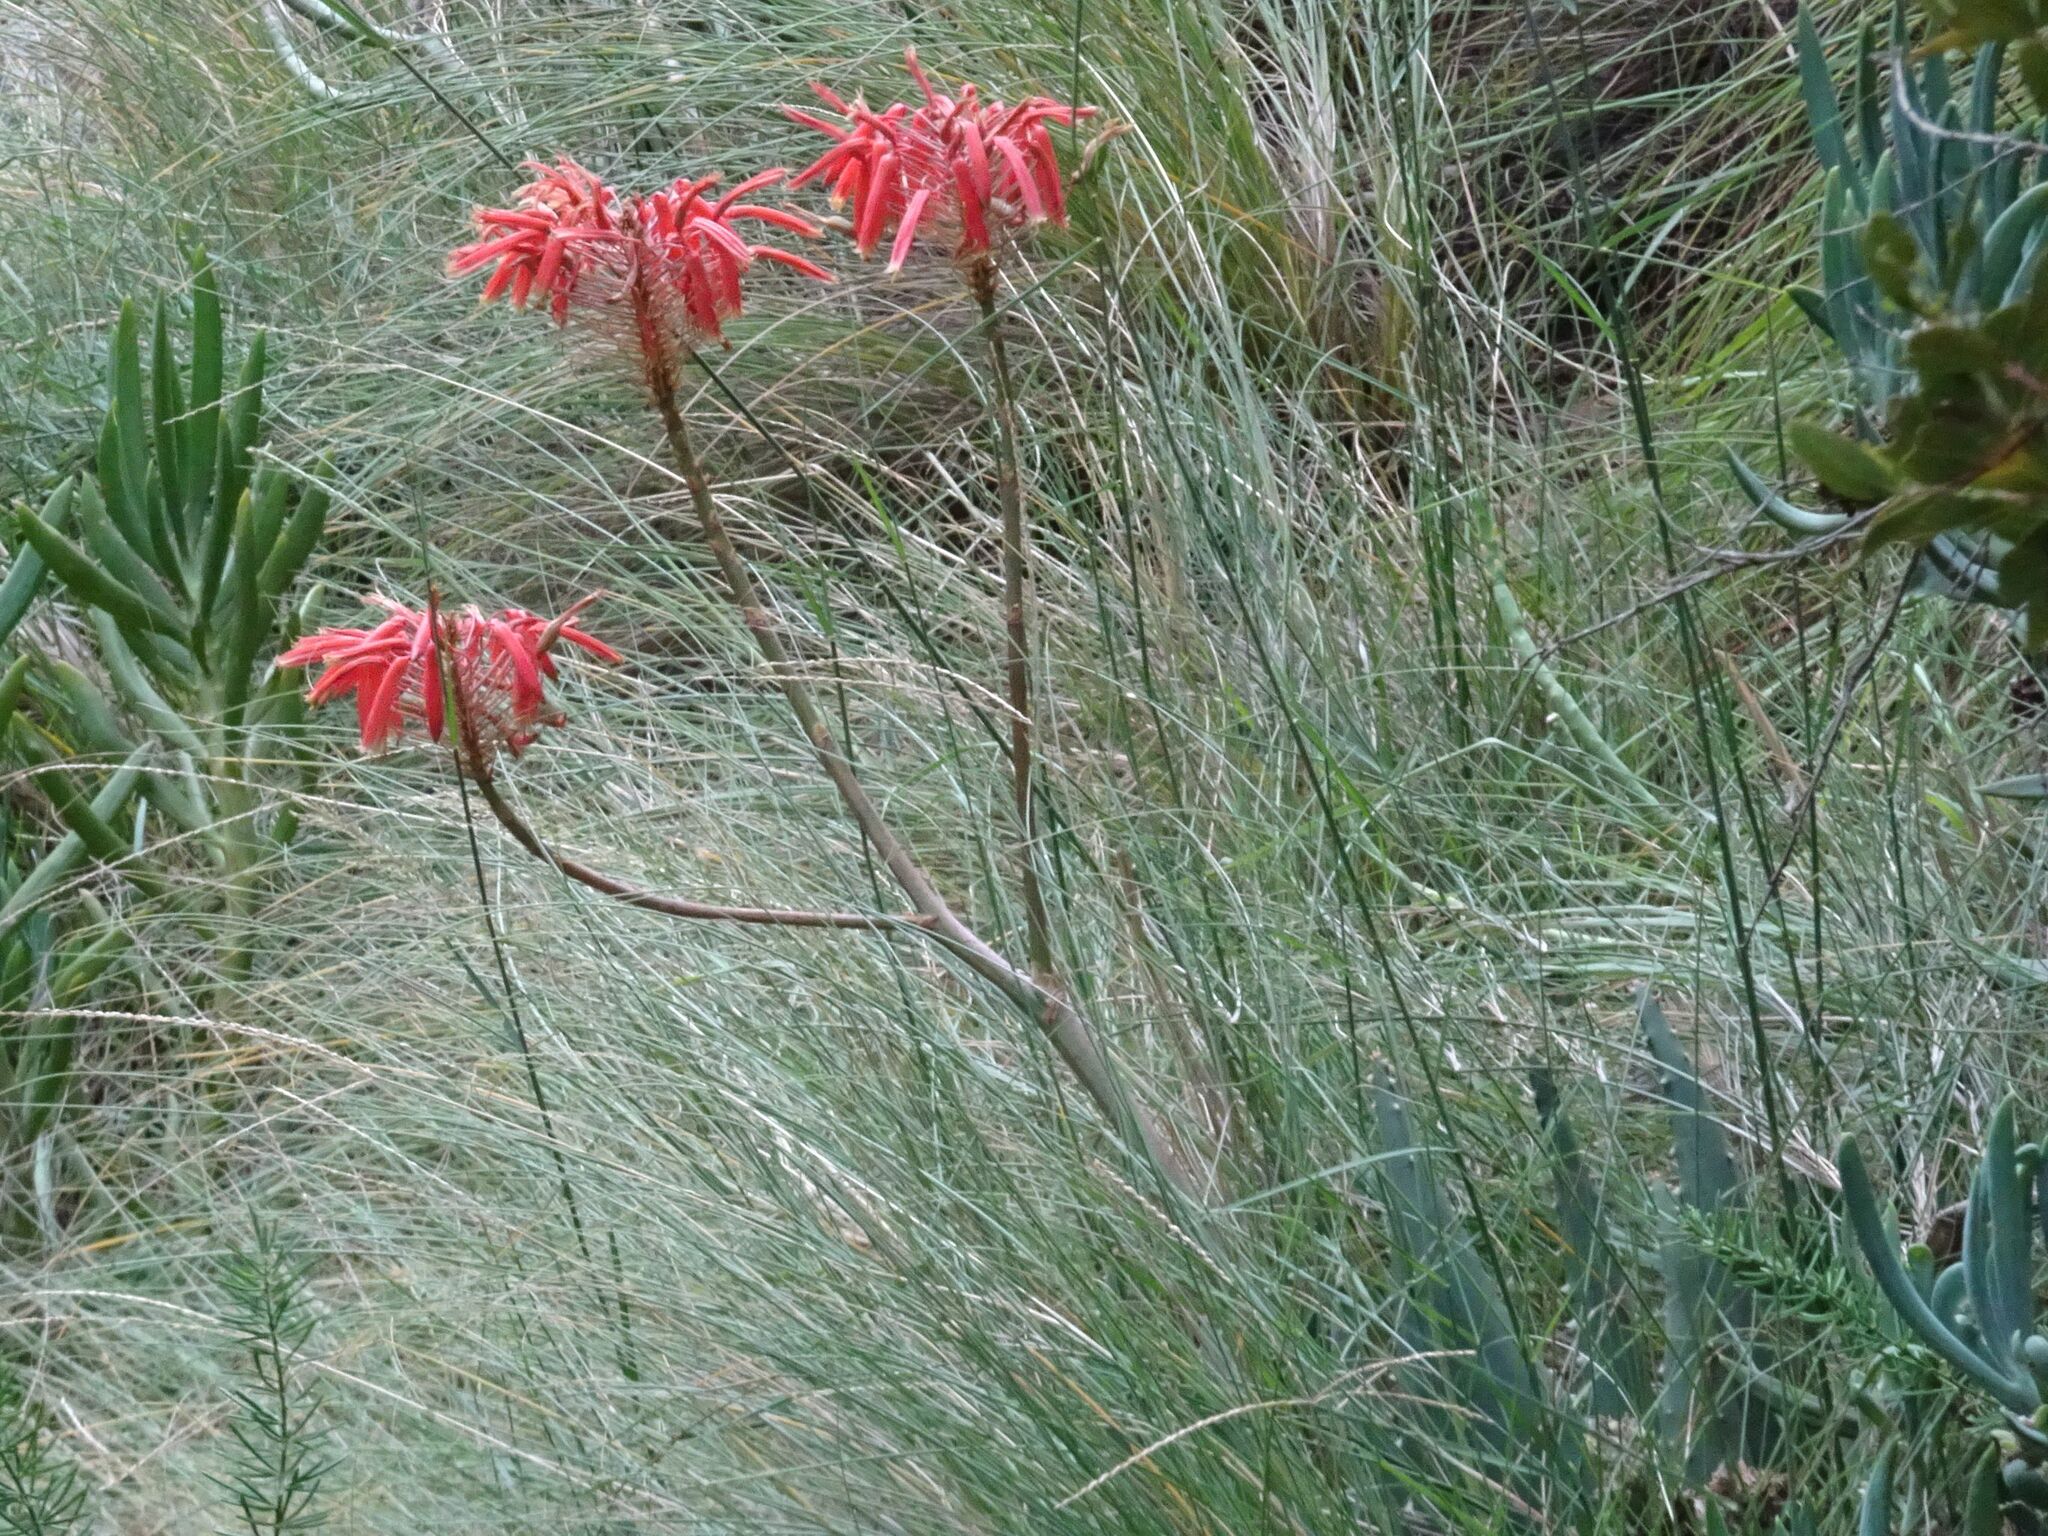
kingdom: Plantae
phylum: Tracheophyta
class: Liliopsida
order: Asparagales
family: Asphodelaceae
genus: Aloe
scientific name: Aloe comptonii
